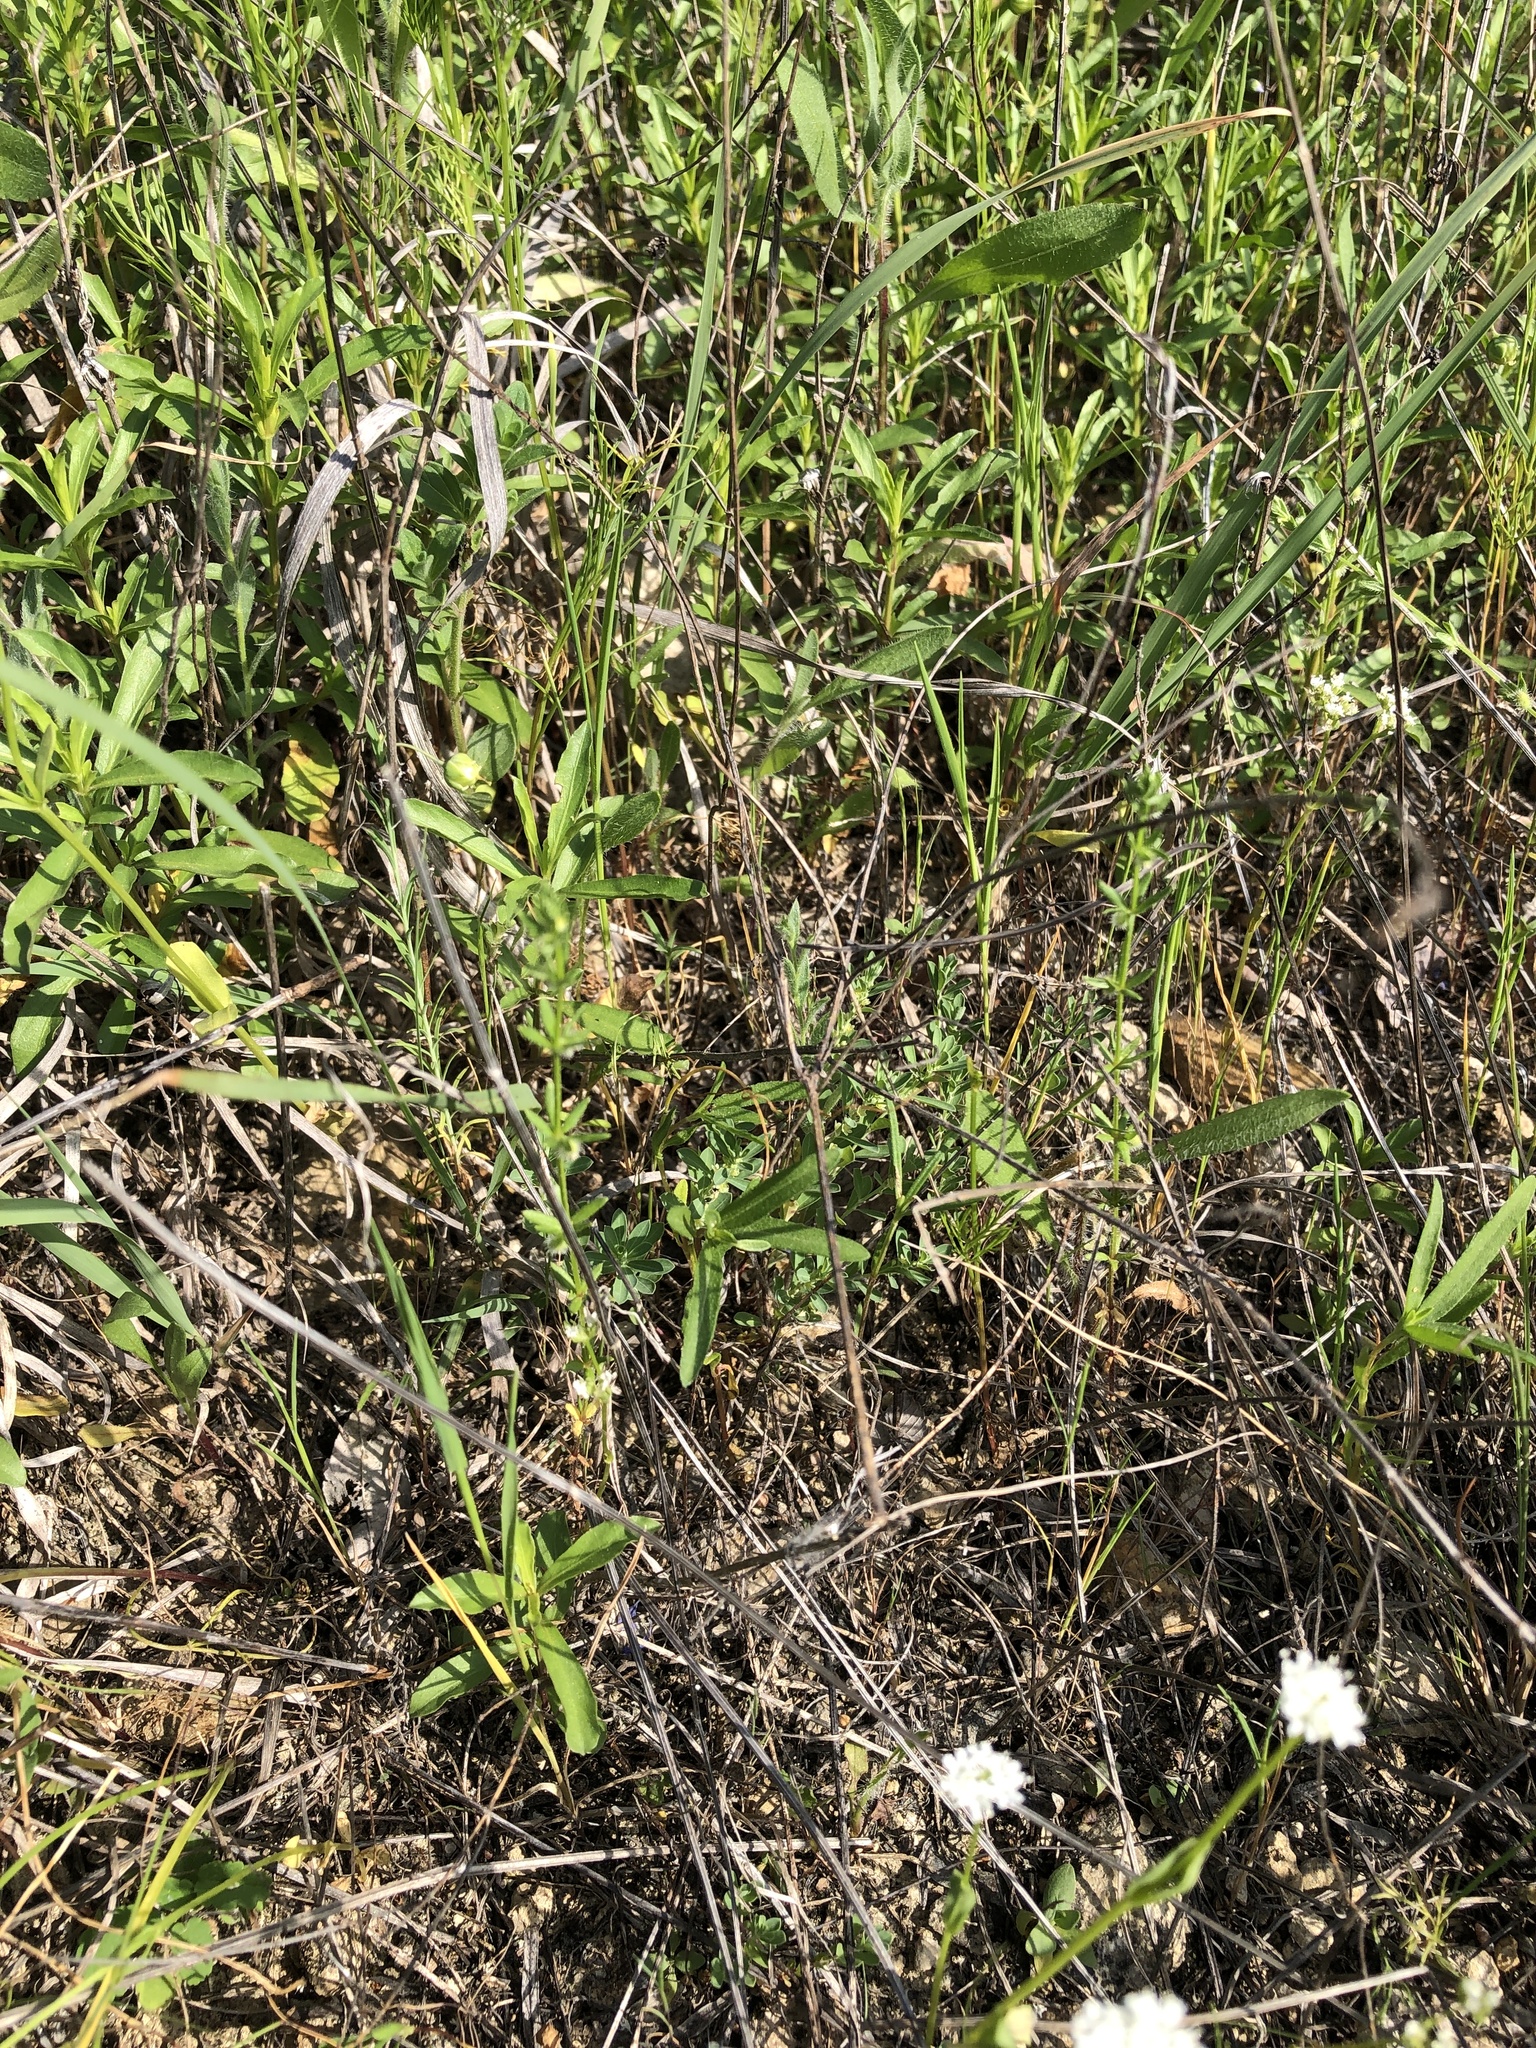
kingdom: Plantae
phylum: Tracheophyta
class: Magnoliopsida
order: Gentianales
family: Rubiaceae
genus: Galium
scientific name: Galium virgatum
